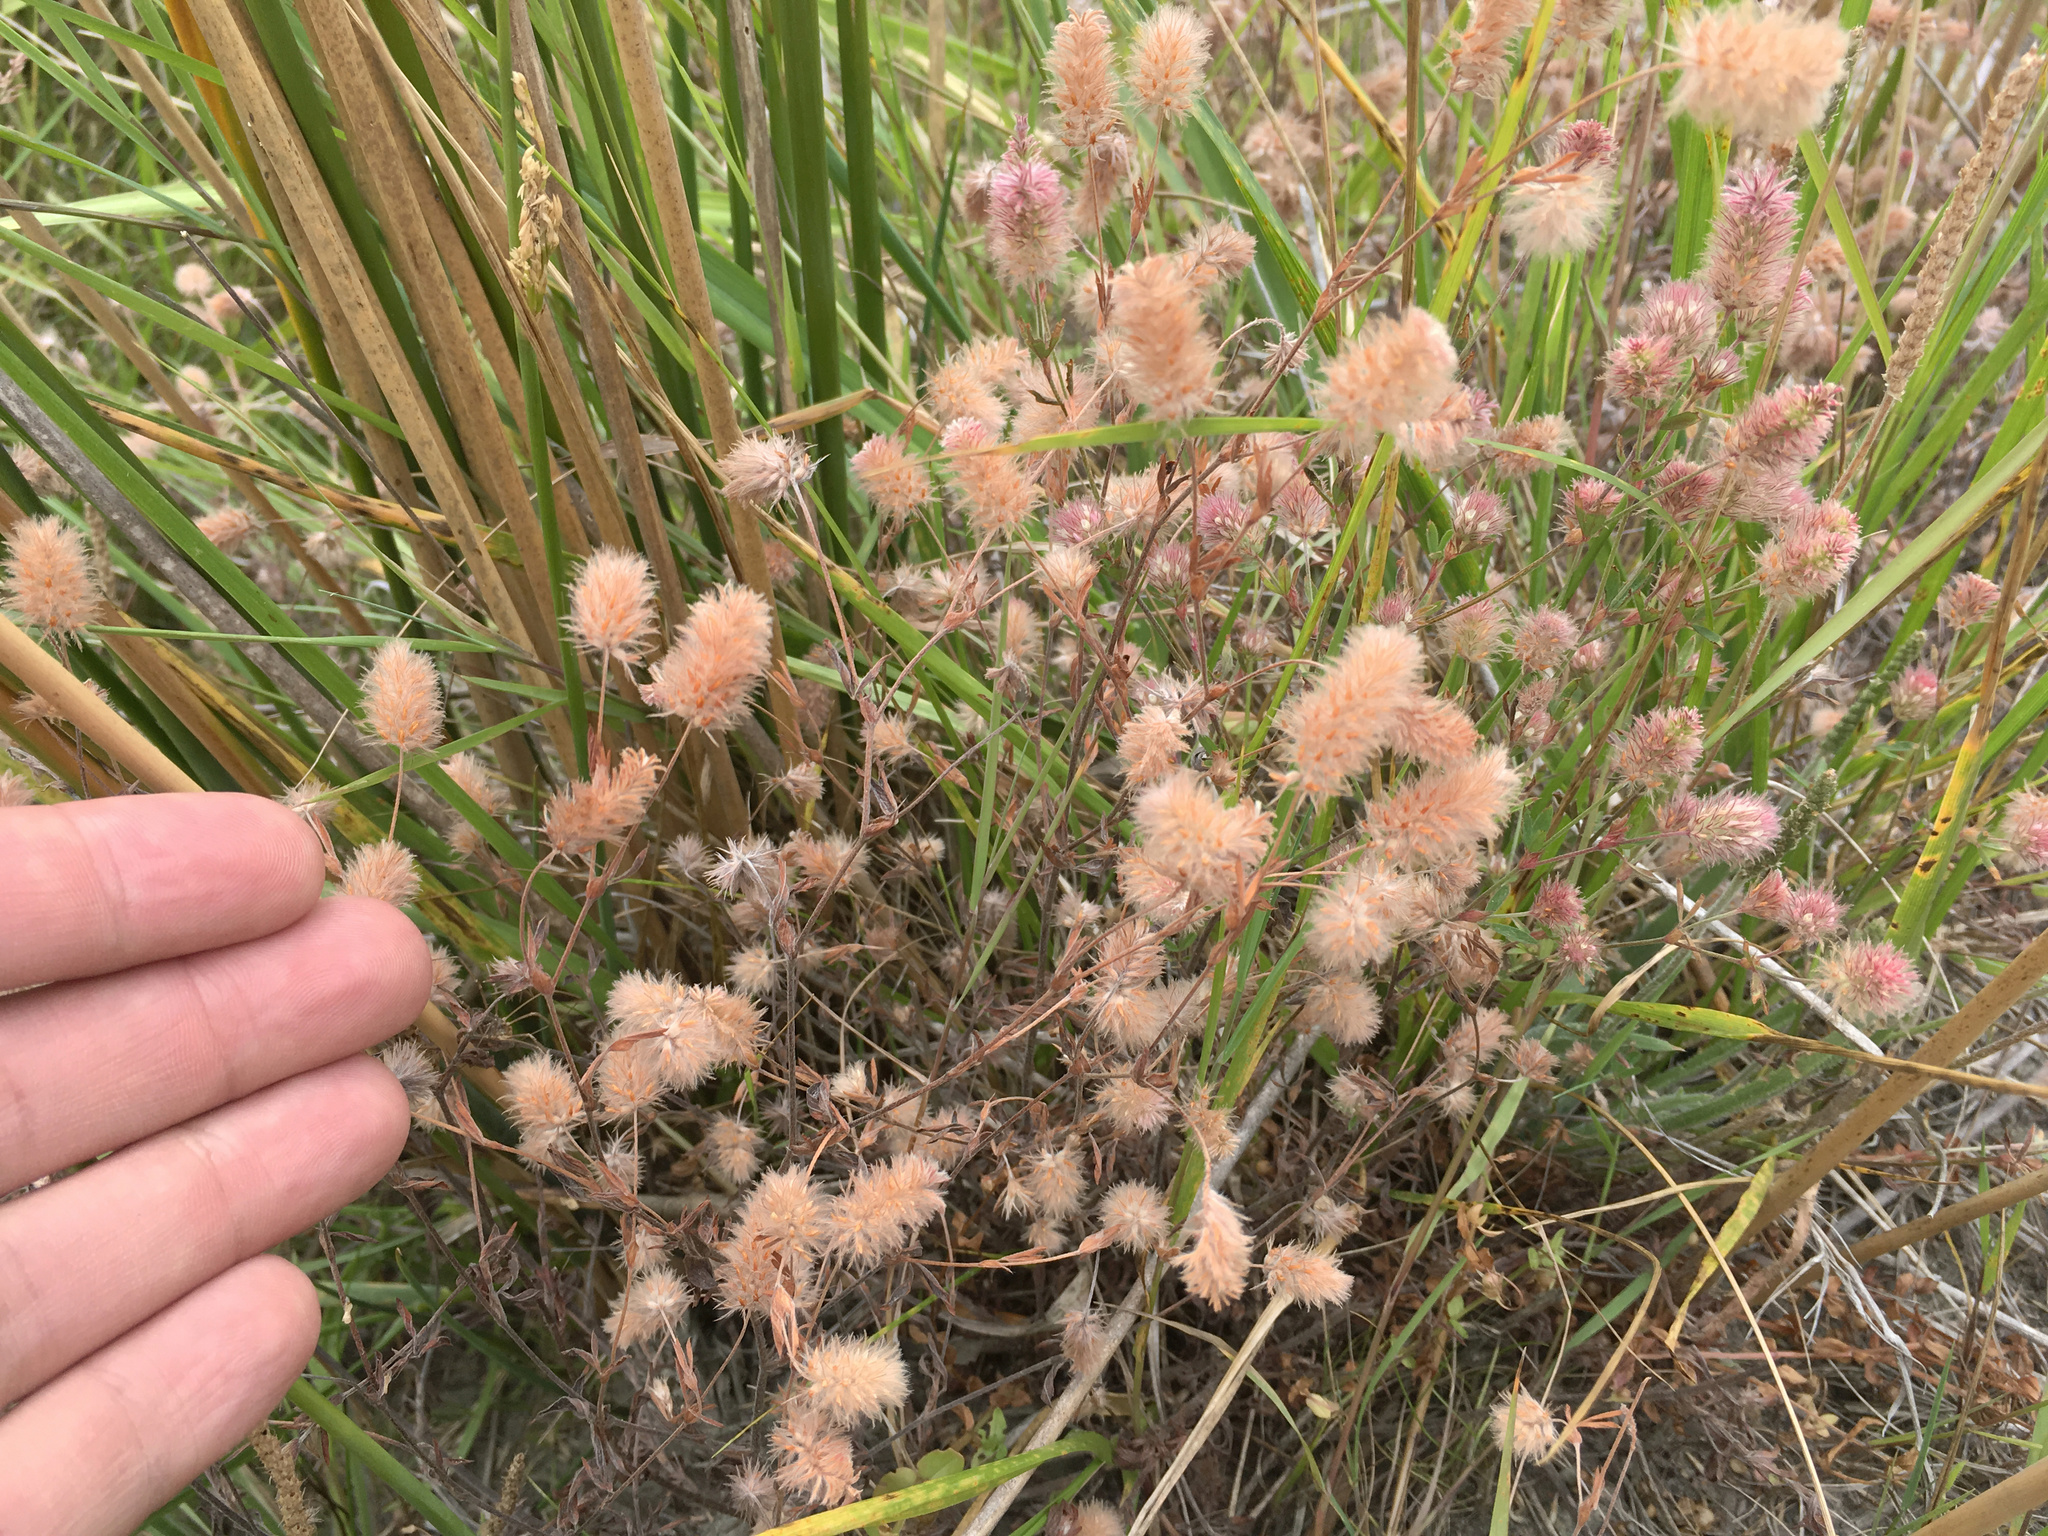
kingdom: Plantae
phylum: Tracheophyta
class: Magnoliopsida
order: Fabales
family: Fabaceae
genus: Trifolium
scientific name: Trifolium arvense
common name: Hare's-foot clover
